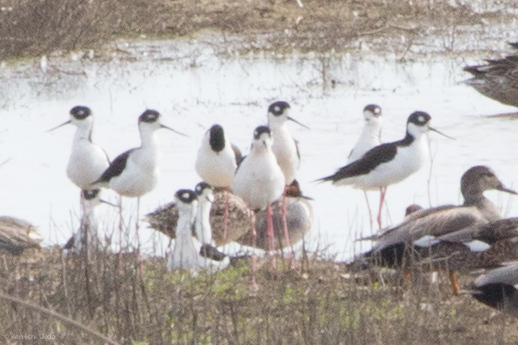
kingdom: Animalia
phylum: Chordata
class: Aves
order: Charadriiformes
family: Recurvirostridae
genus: Himantopus
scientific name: Himantopus mexicanus
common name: Black-necked stilt
